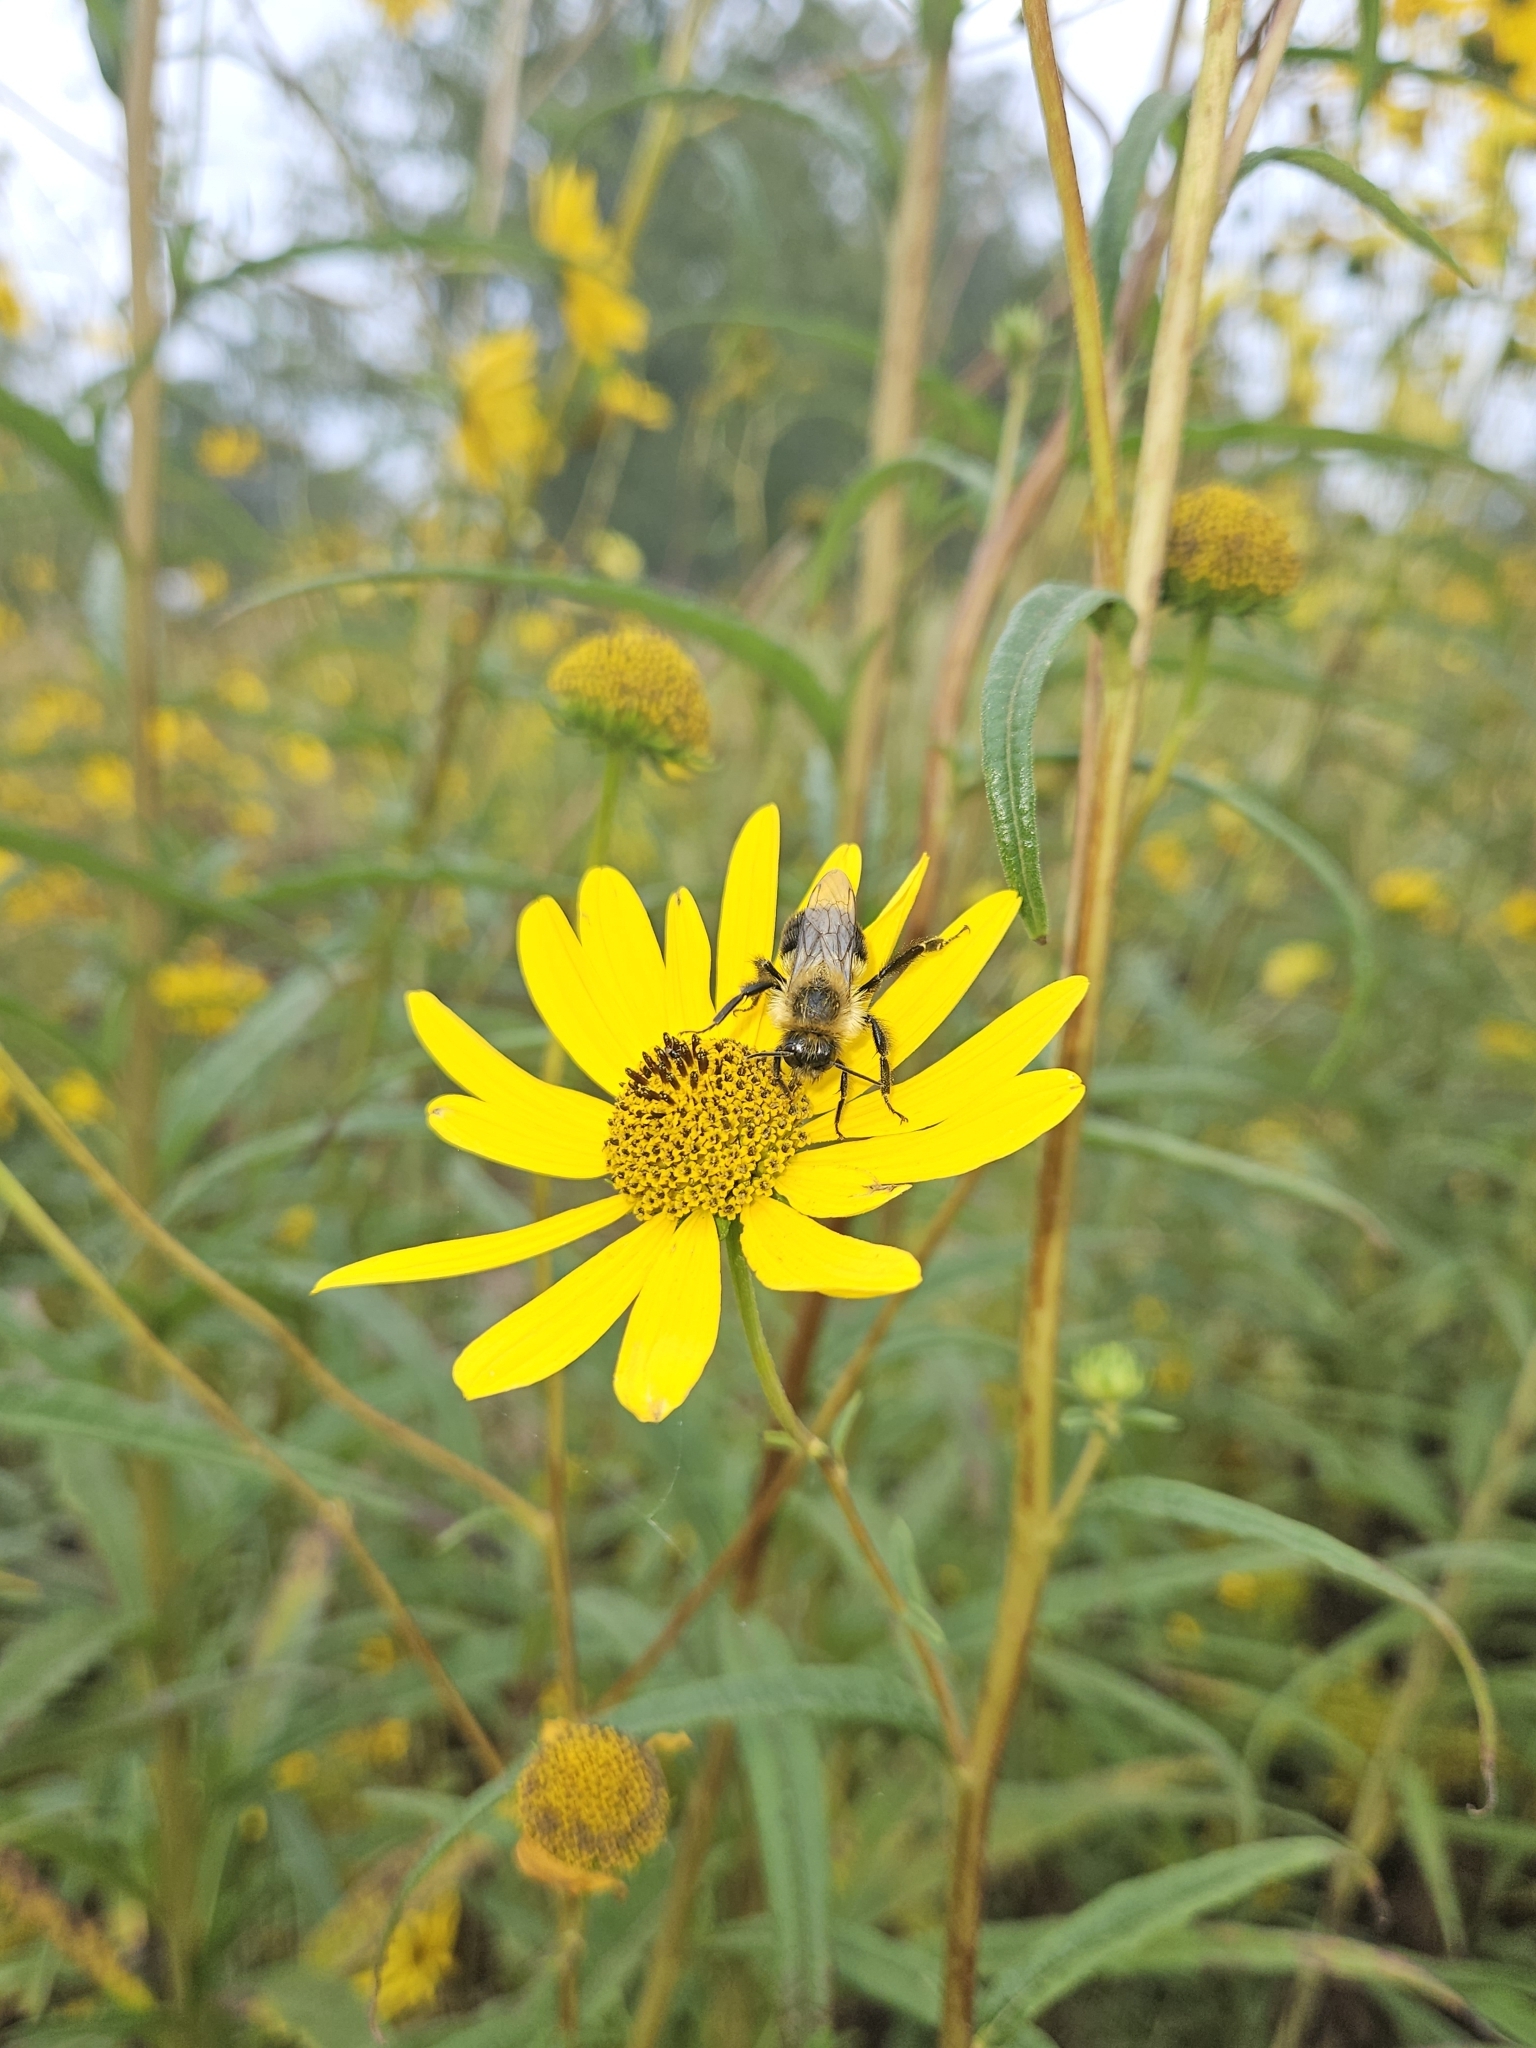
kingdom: Animalia
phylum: Arthropoda
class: Insecta
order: Hymenoptera
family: Apidae
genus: Bombus
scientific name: Bombus impatiens
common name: Common eastern bumble bee
